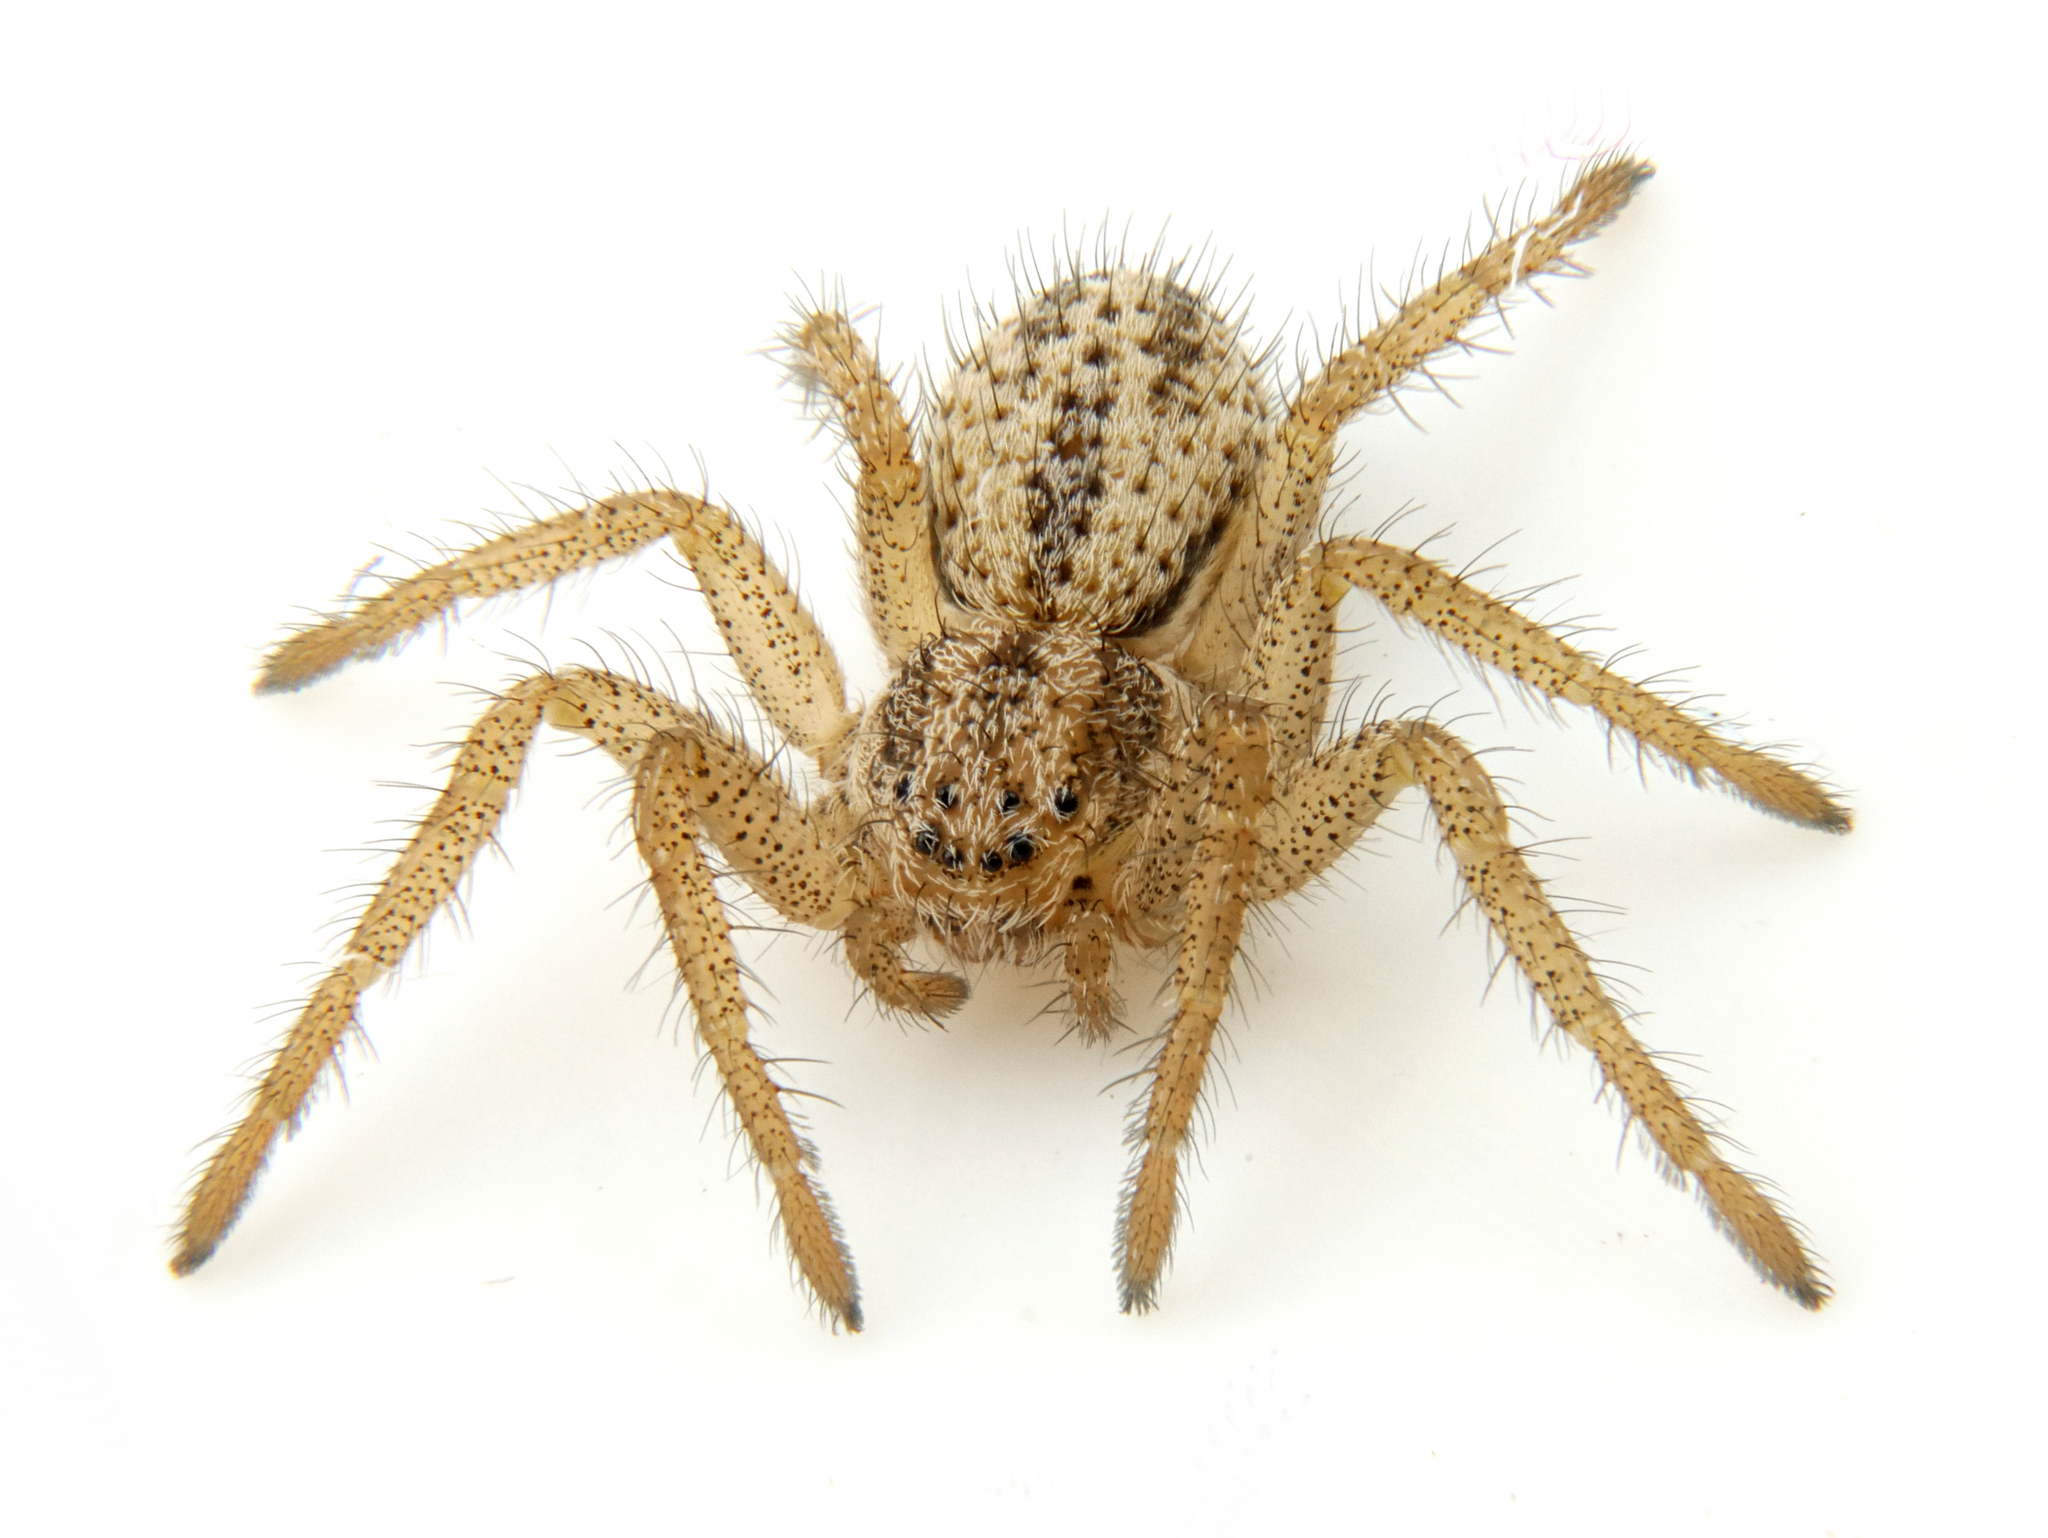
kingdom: Animalia
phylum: Arthropoda
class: Arachnida
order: Araneae
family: Philodromidae
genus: Thanatus
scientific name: Thanatus striatus
